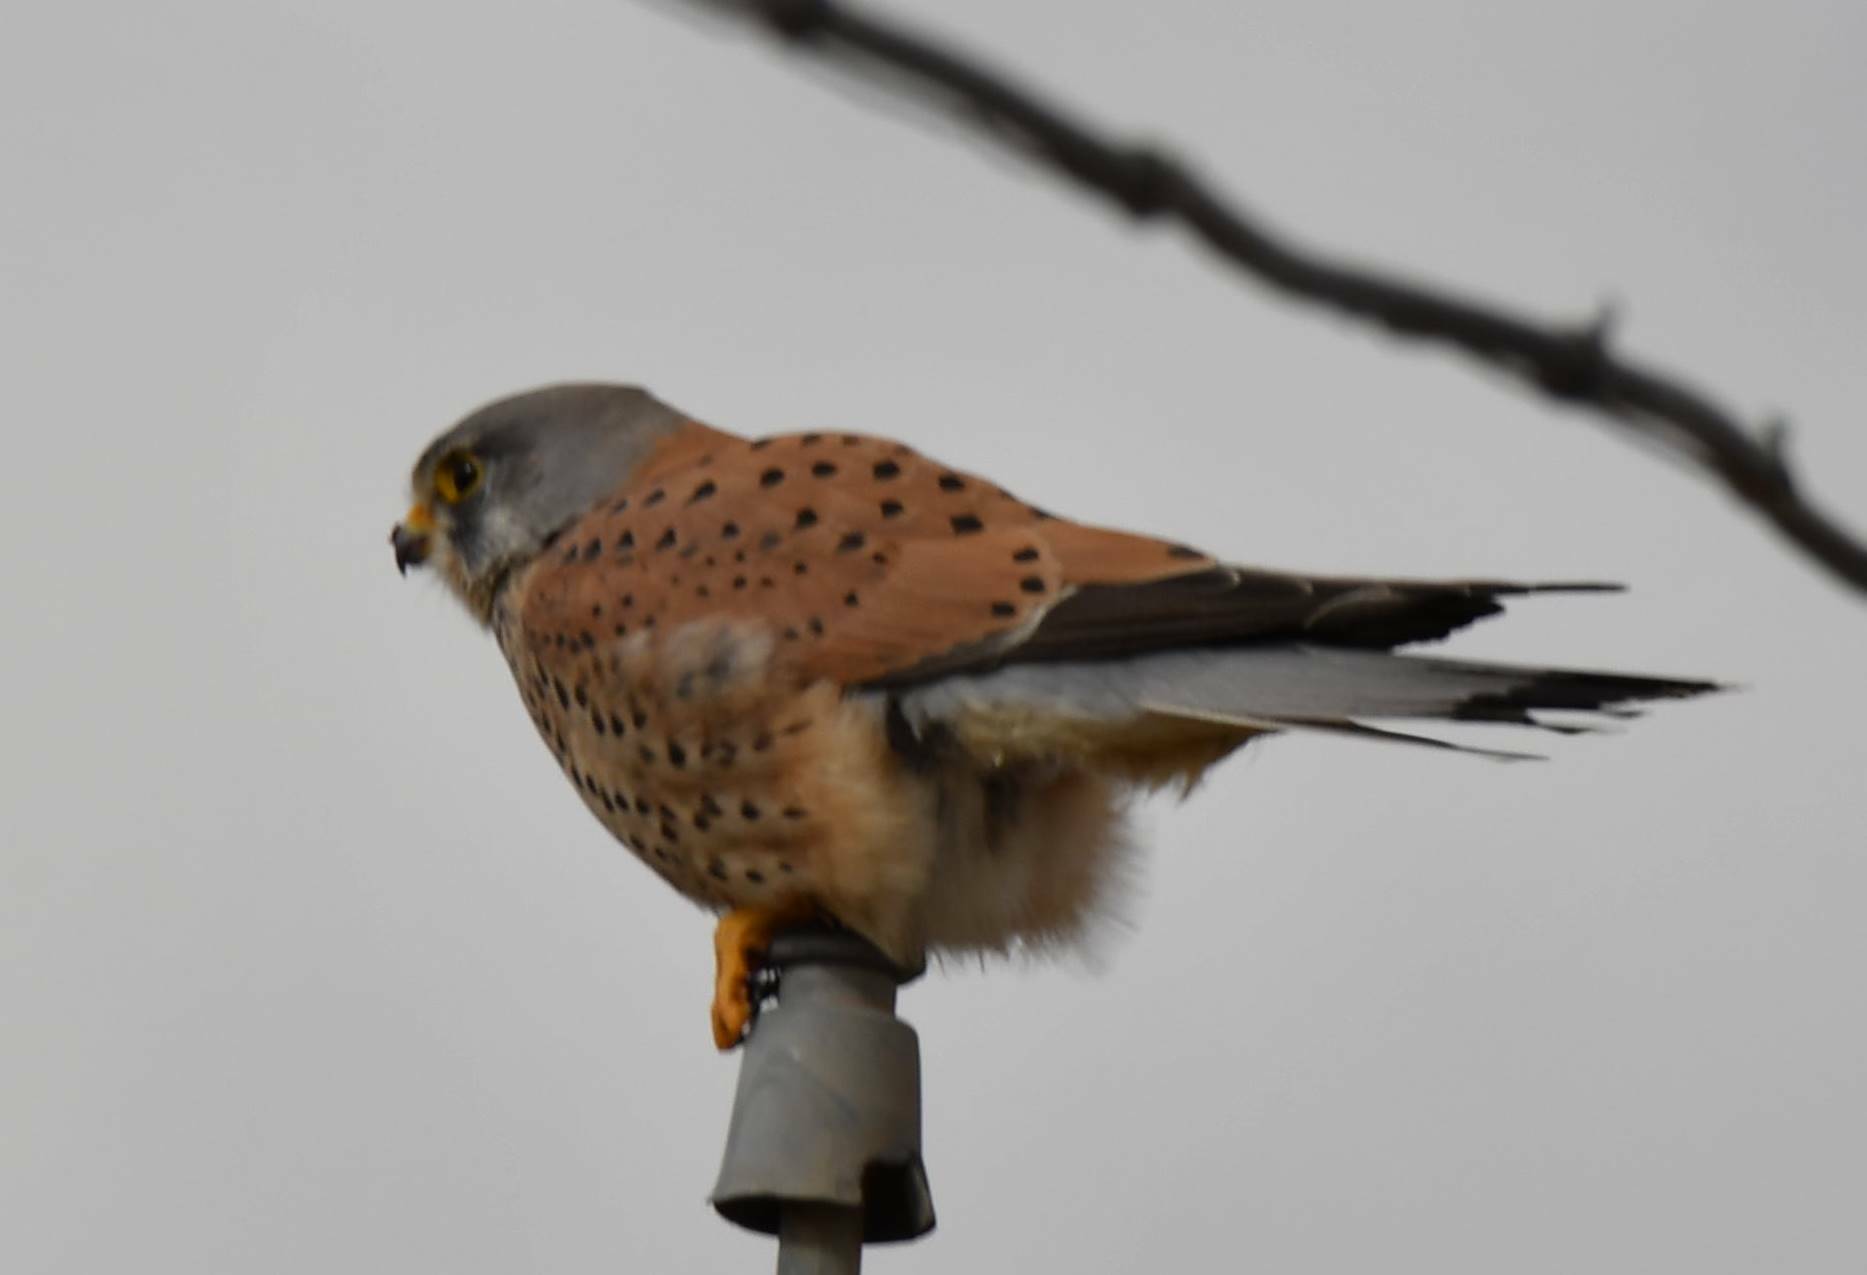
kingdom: Animalia
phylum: Chordata
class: Aves
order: Falconiformes
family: Falconidae
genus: Falco
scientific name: Falco tinnunculus
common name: Common kestrel
